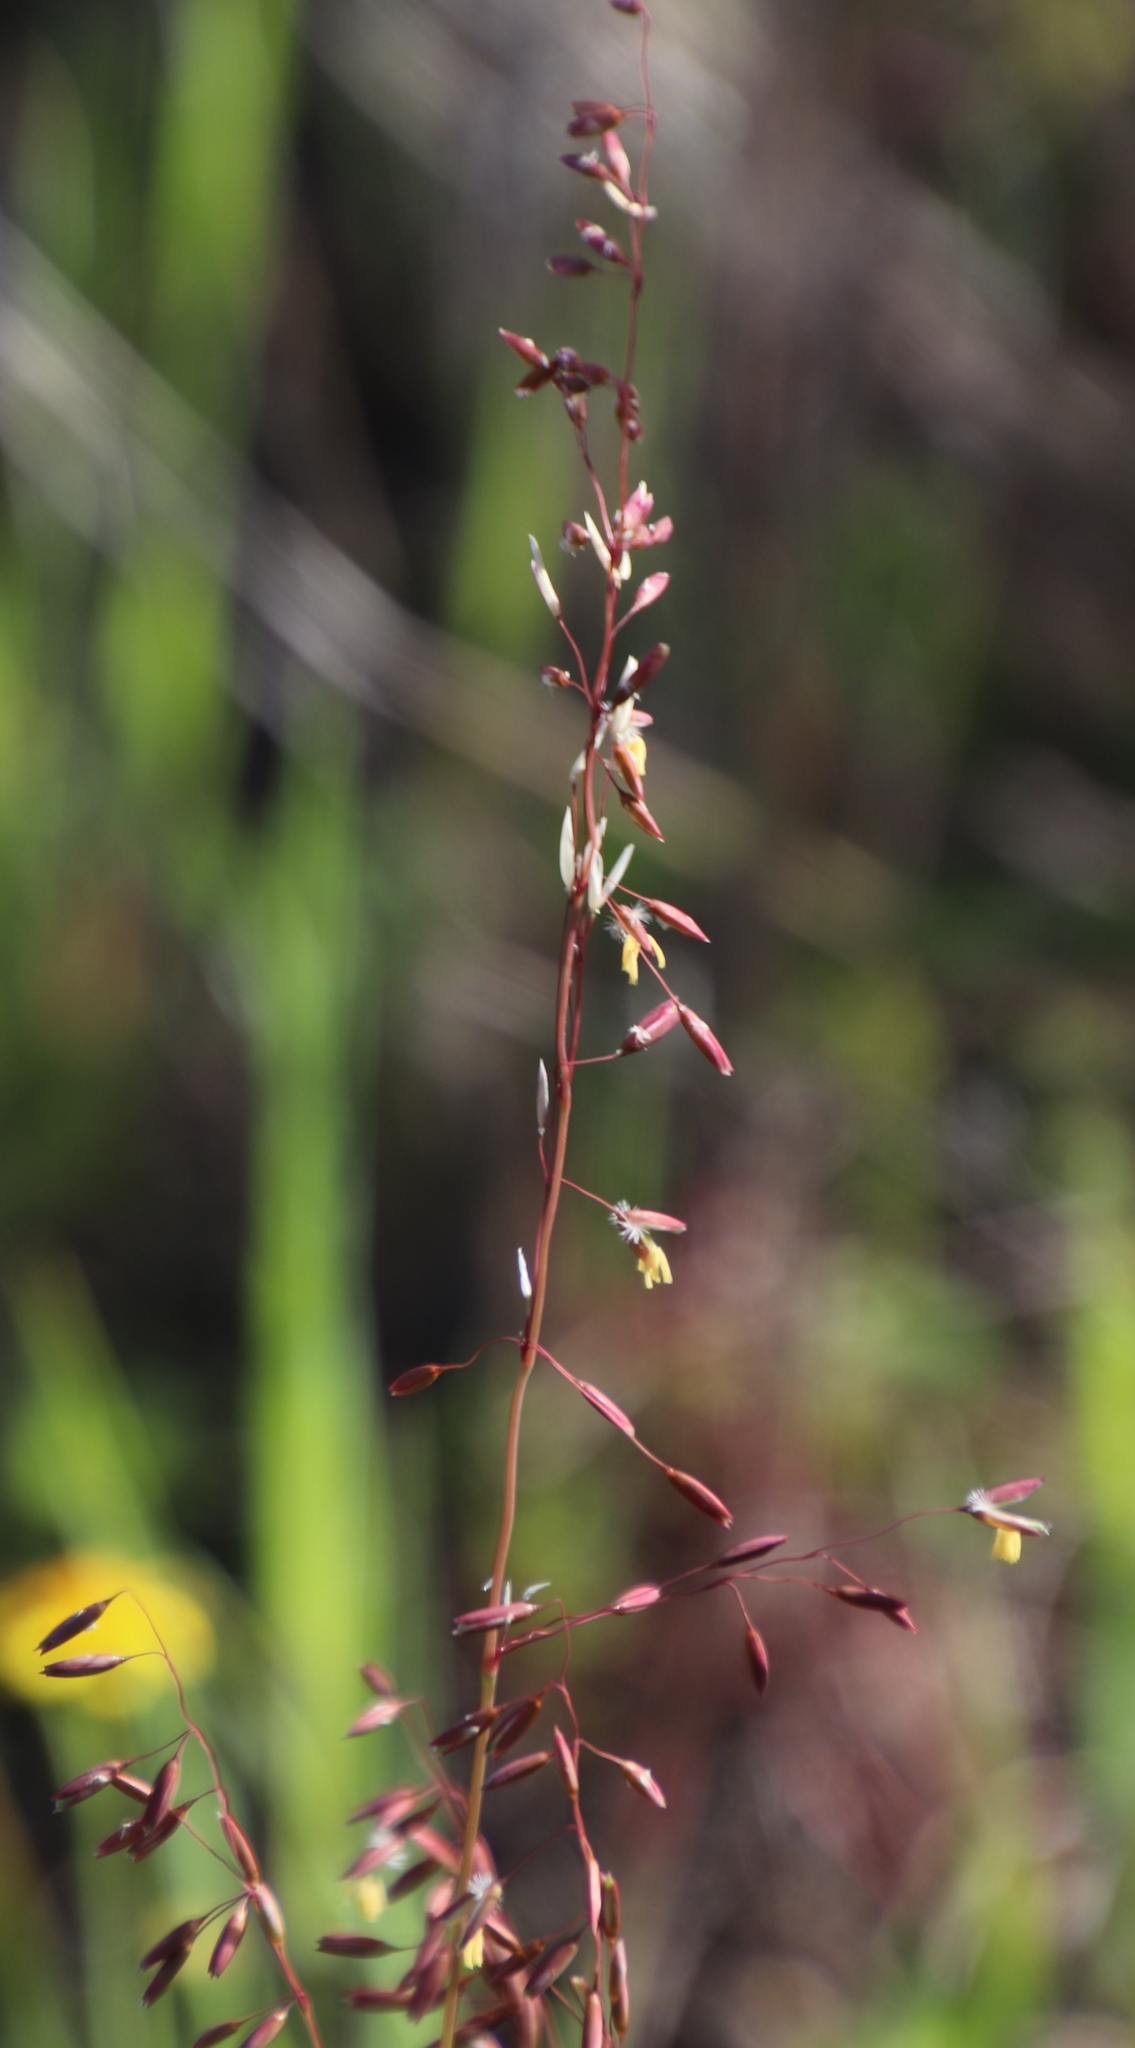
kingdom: Plantae
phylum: Tracheophyta
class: Liliopsida
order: Poales
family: Poaceae
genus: Ehrharta
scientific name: Ehrharta calycina
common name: Perennial veldtgrass
